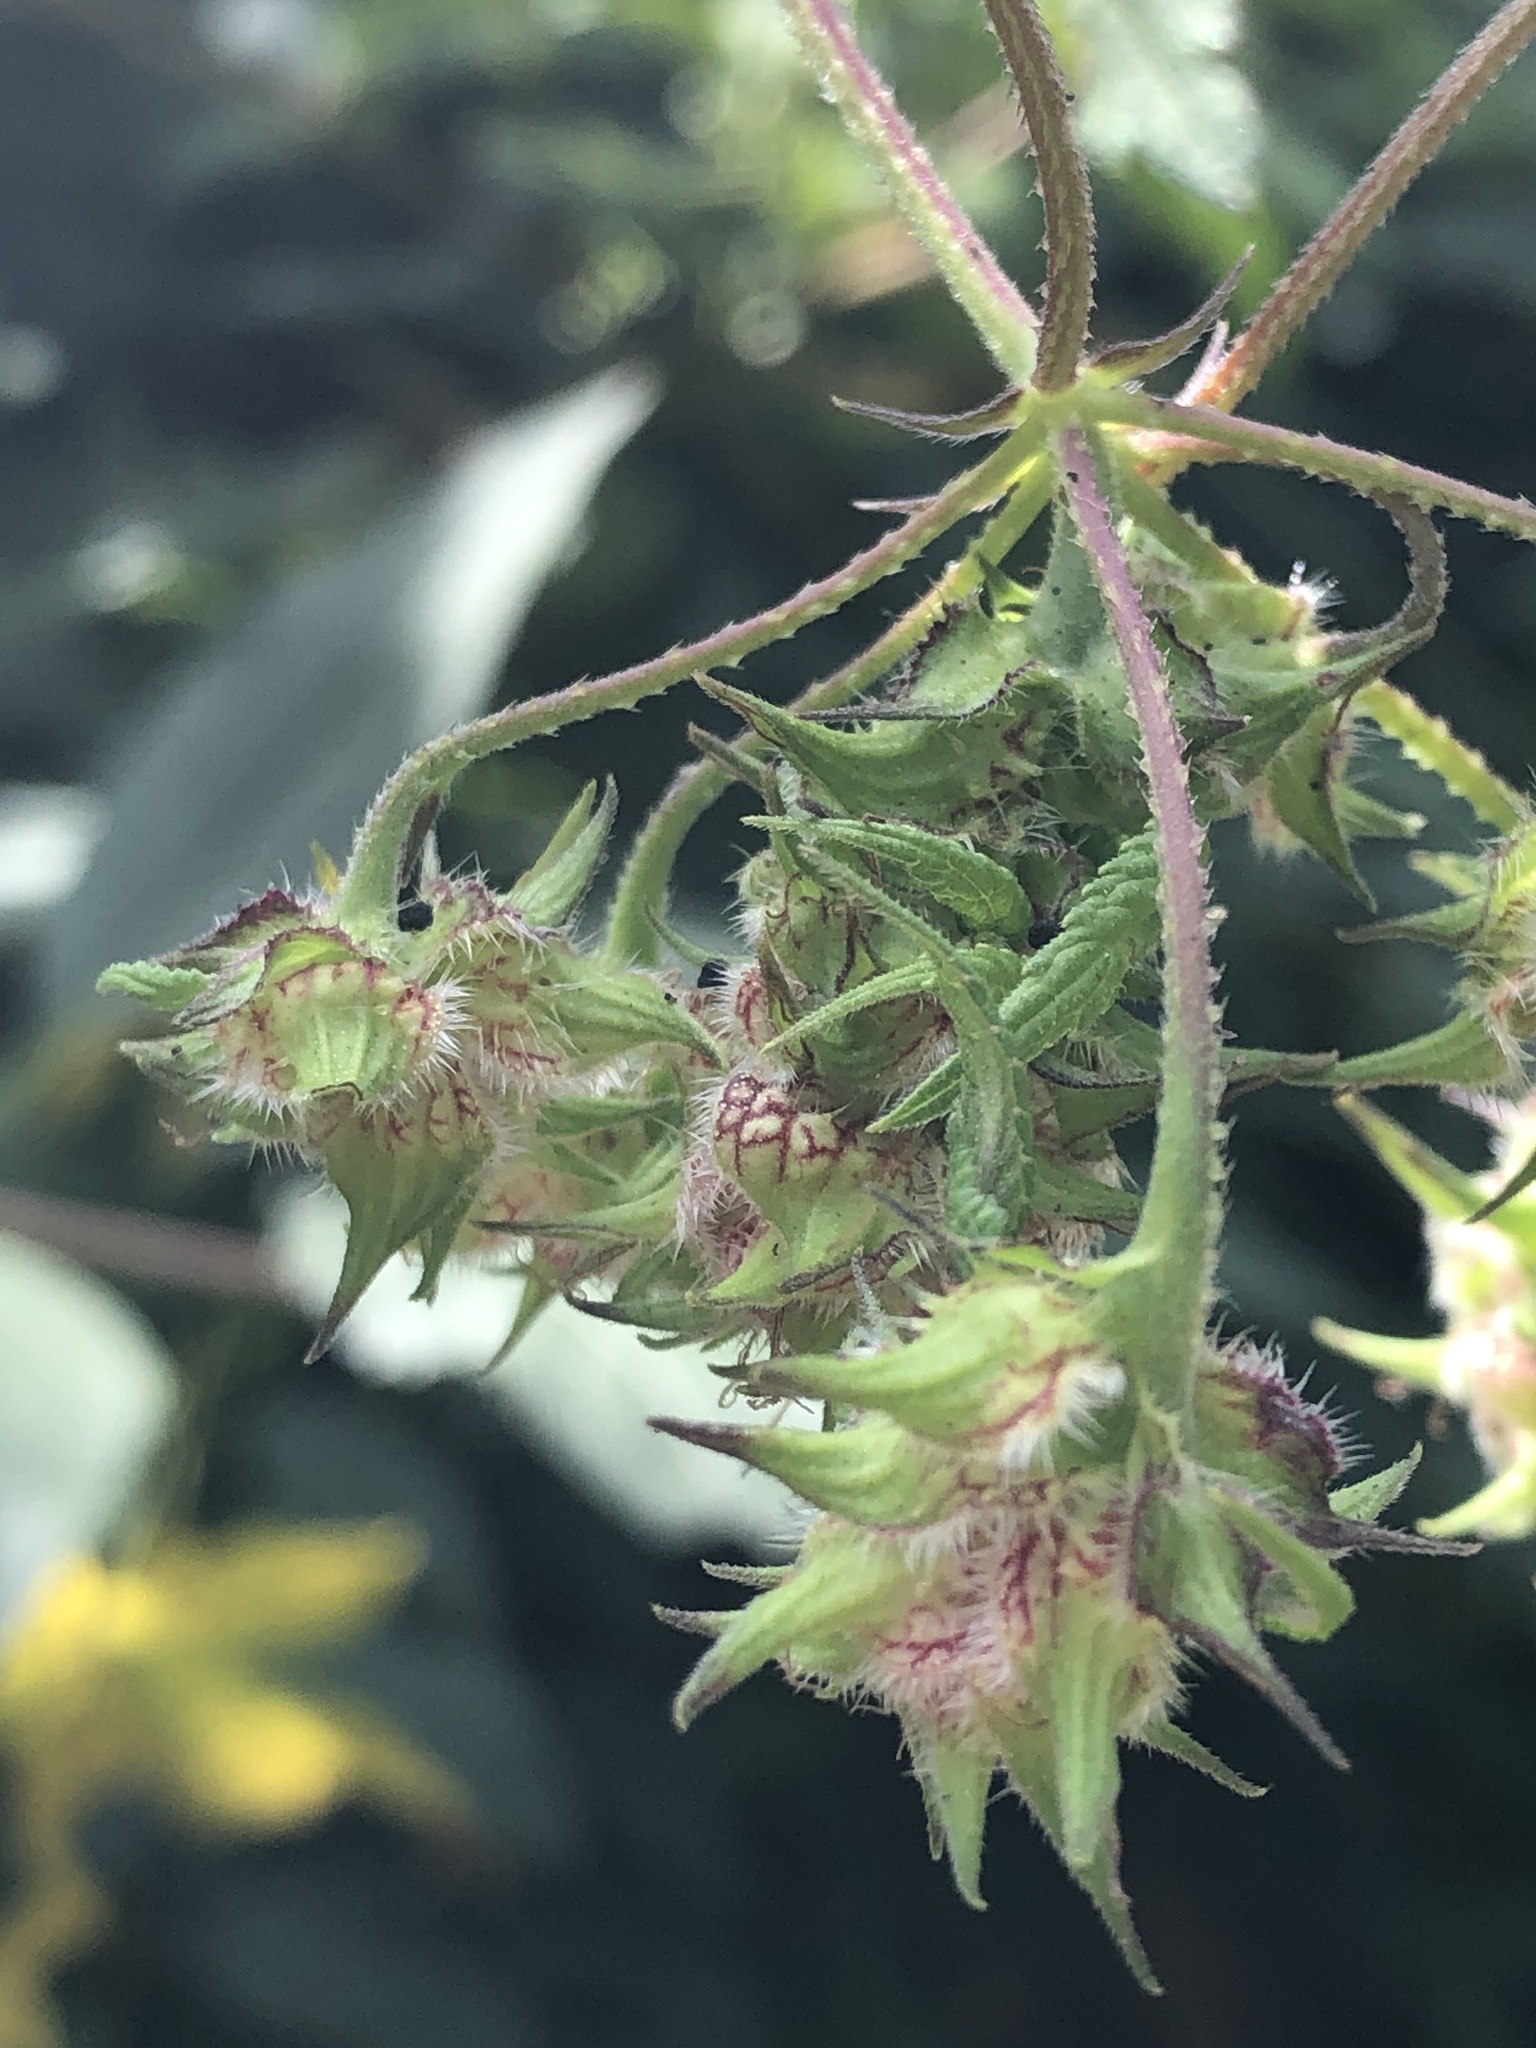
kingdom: Plantae
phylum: Tracheophyta
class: Magnoliopsida
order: Rosales
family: Cannabaceae
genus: Humulus
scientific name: Humulus scandens
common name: Japanese hop
